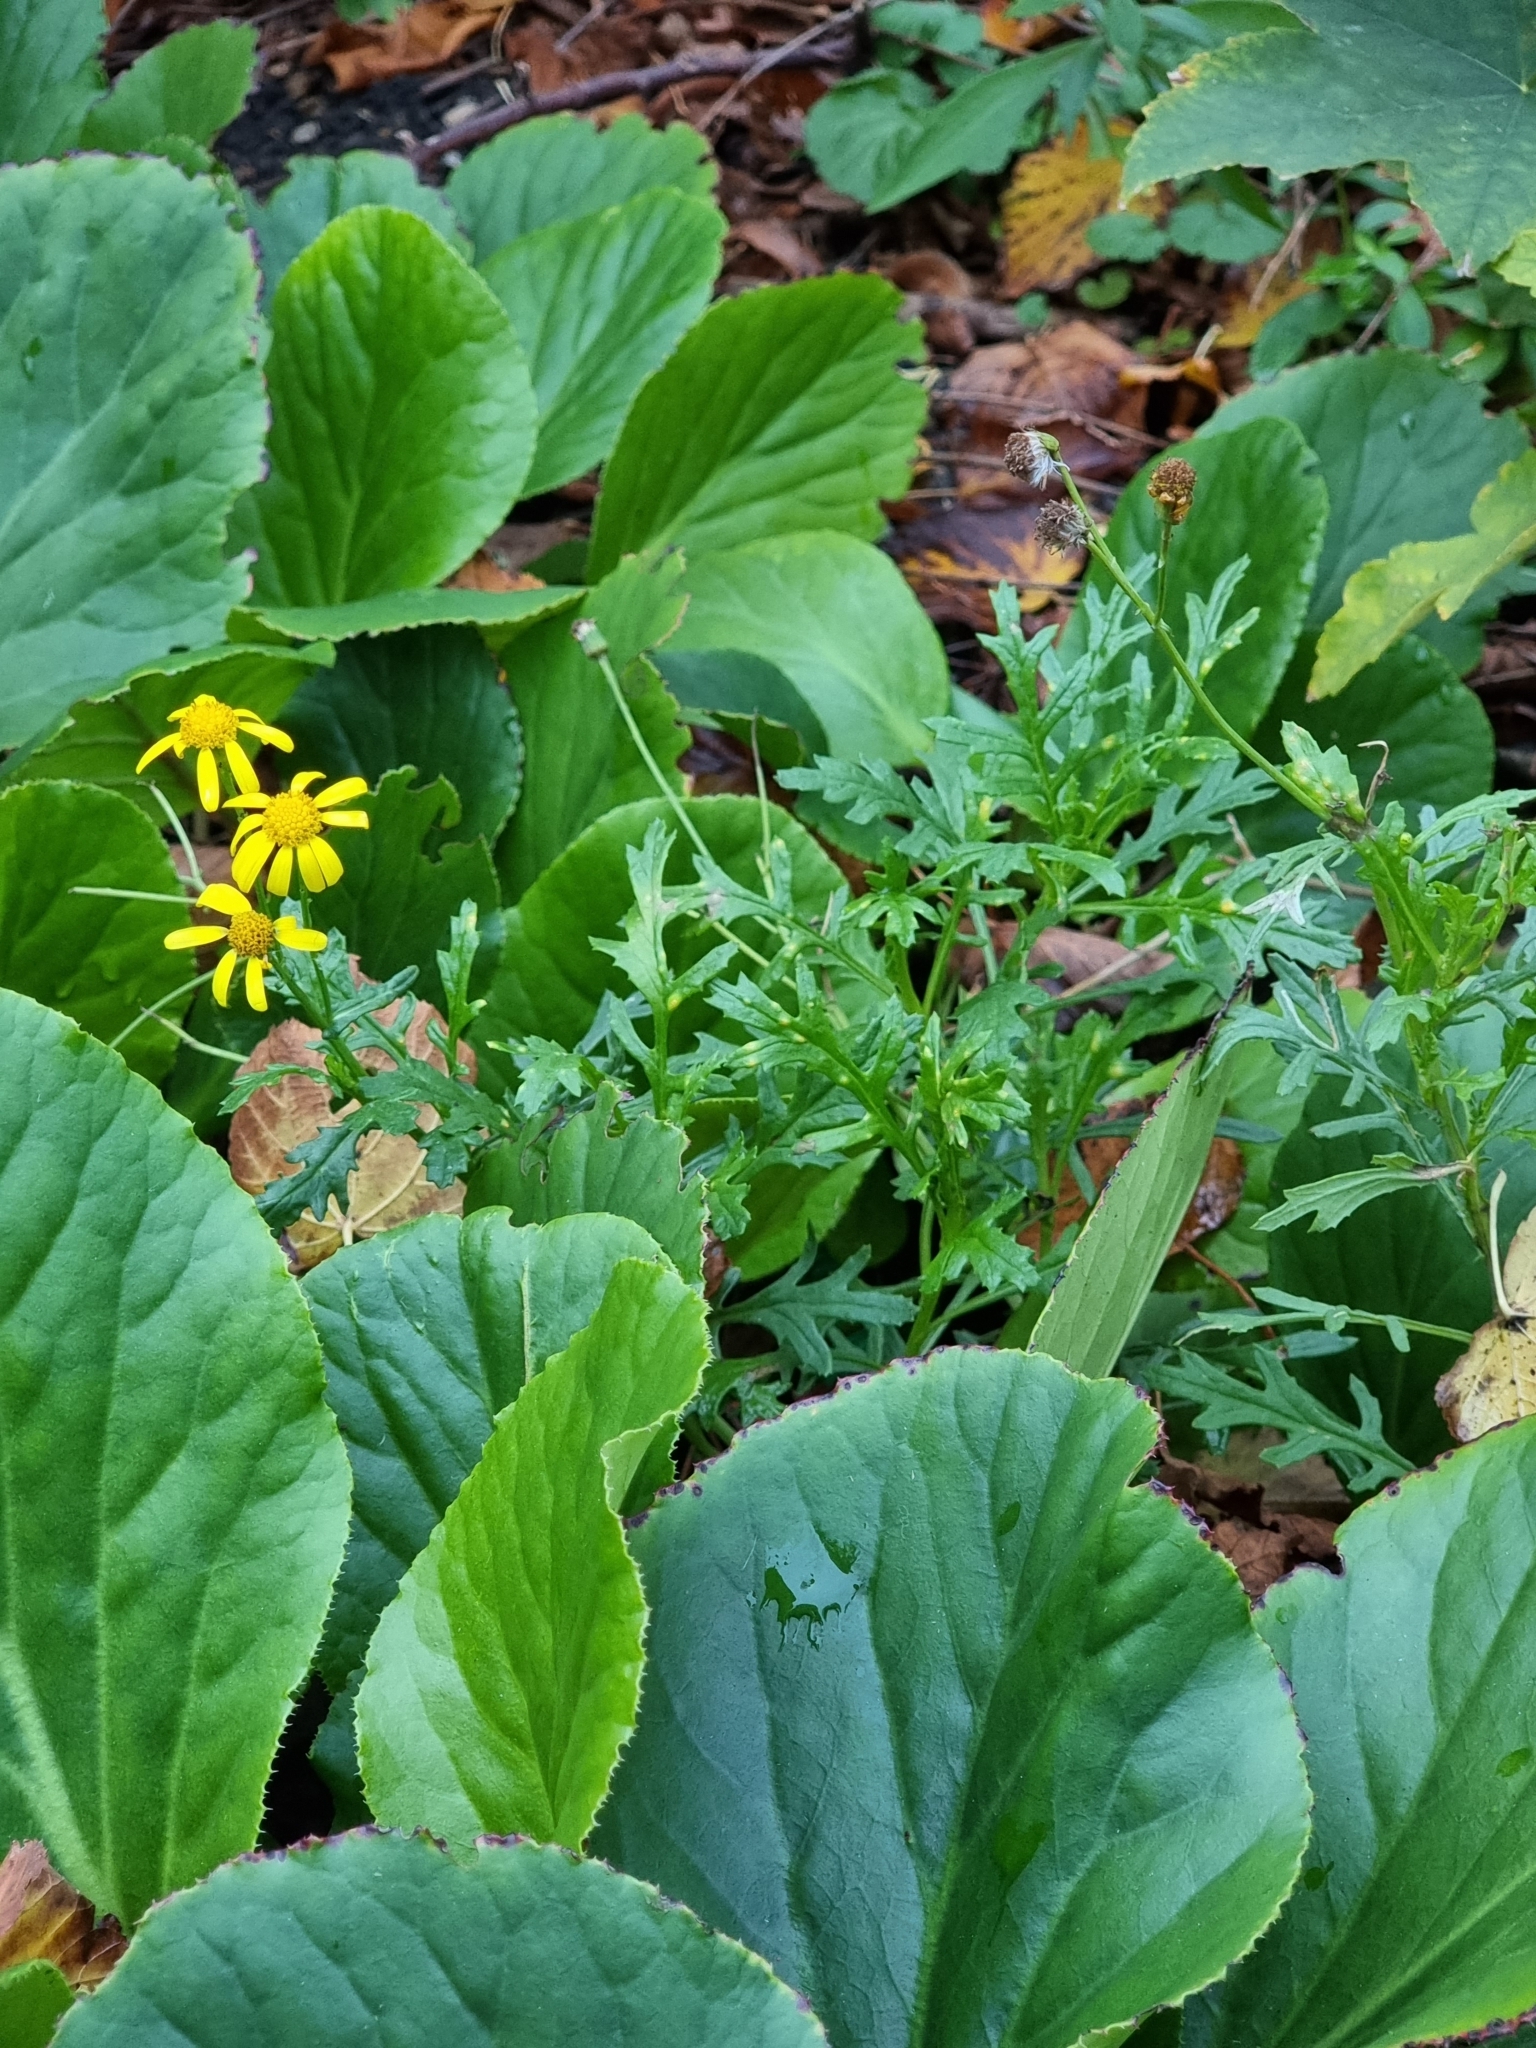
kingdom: Plantae
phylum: Tracheophyta
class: Magnoliopsida
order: Asterales
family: Asteraceae
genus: Senecio
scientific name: Senecio squalidus
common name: Oxford ragwort
